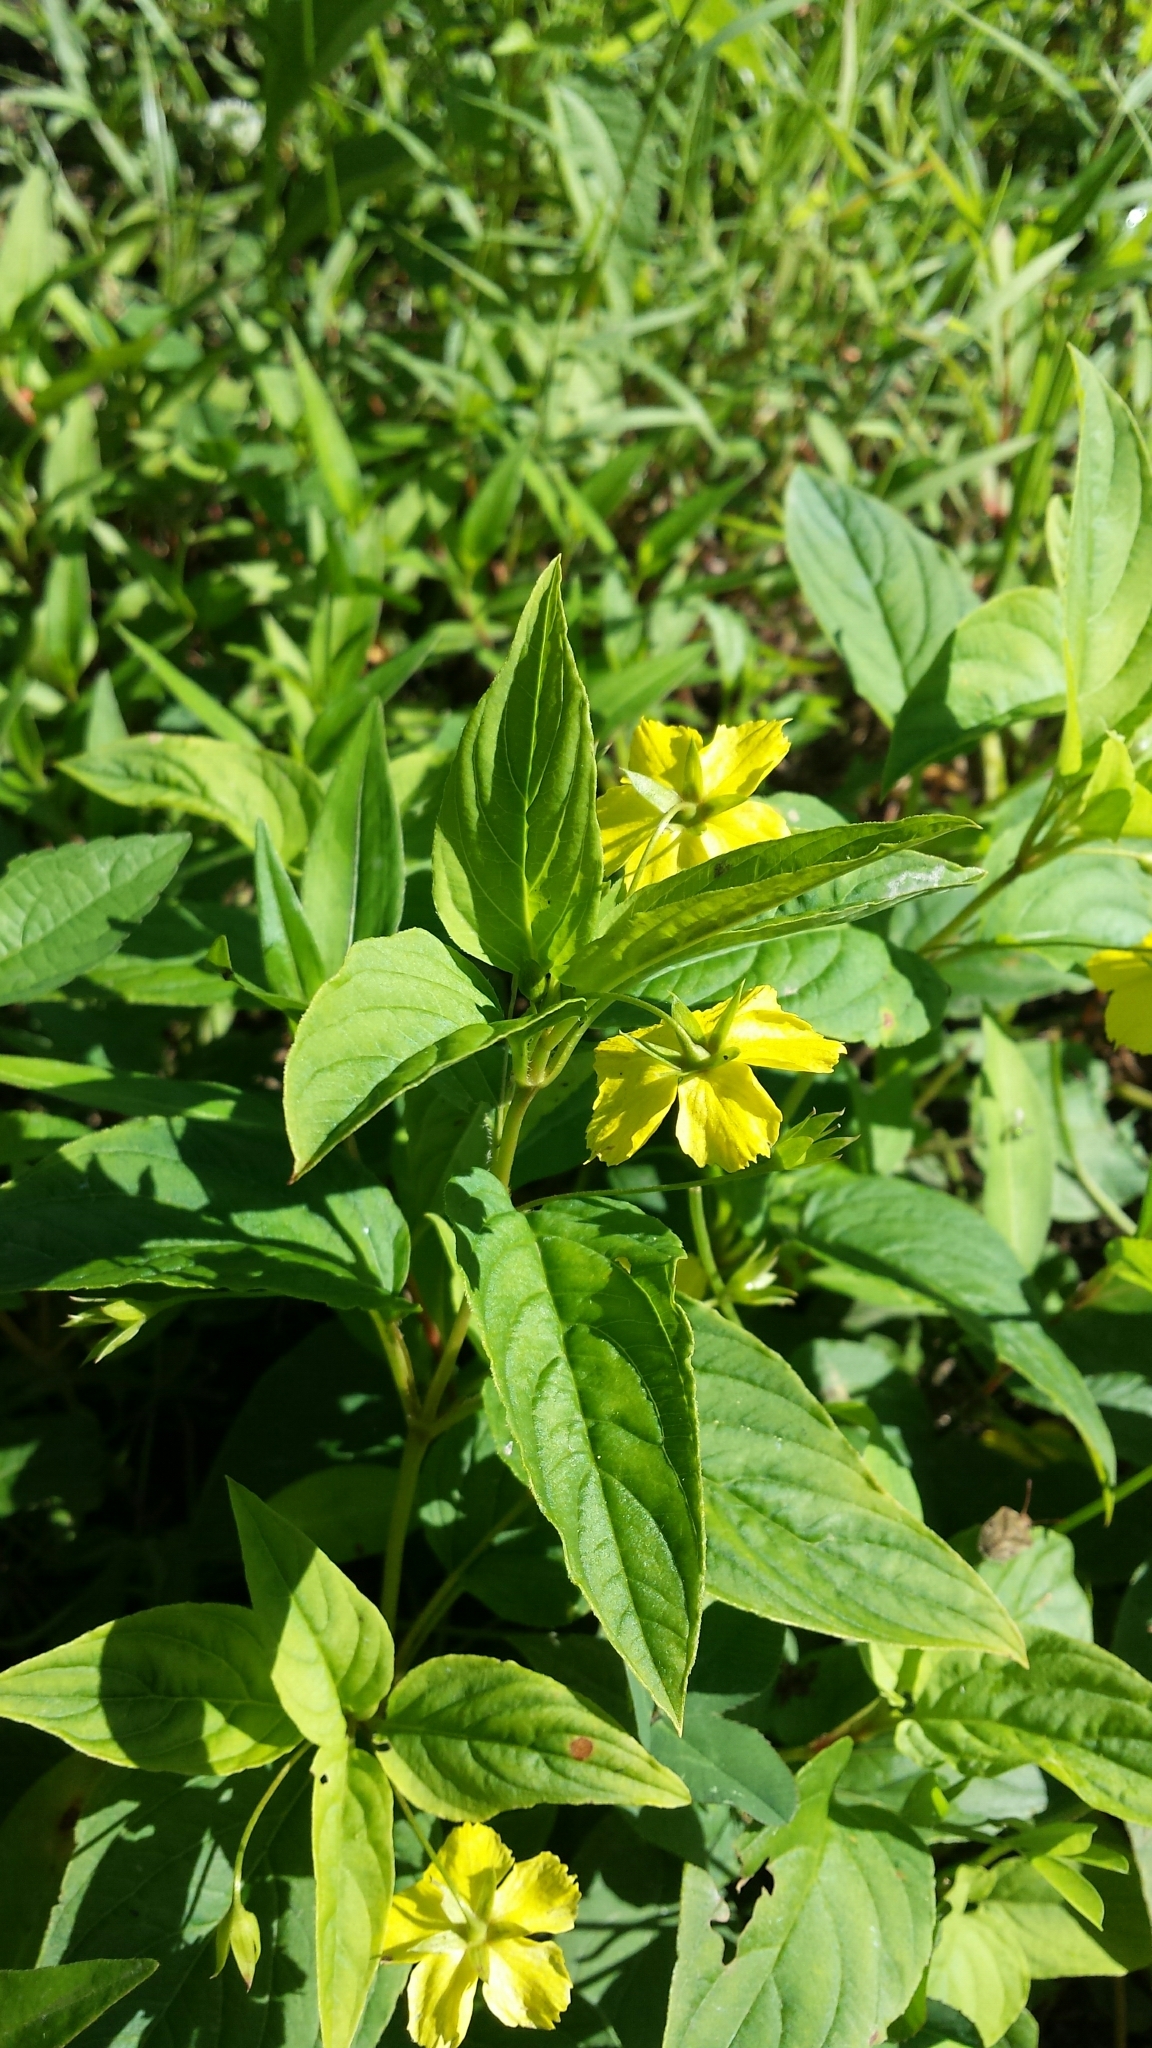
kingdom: Plantae
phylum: Tracheophyta
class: Magnoliopsida
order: Ericales
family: Primulaceae
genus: Lysimachia
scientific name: Lysimachia ciliata
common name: Fringed loosestrife
